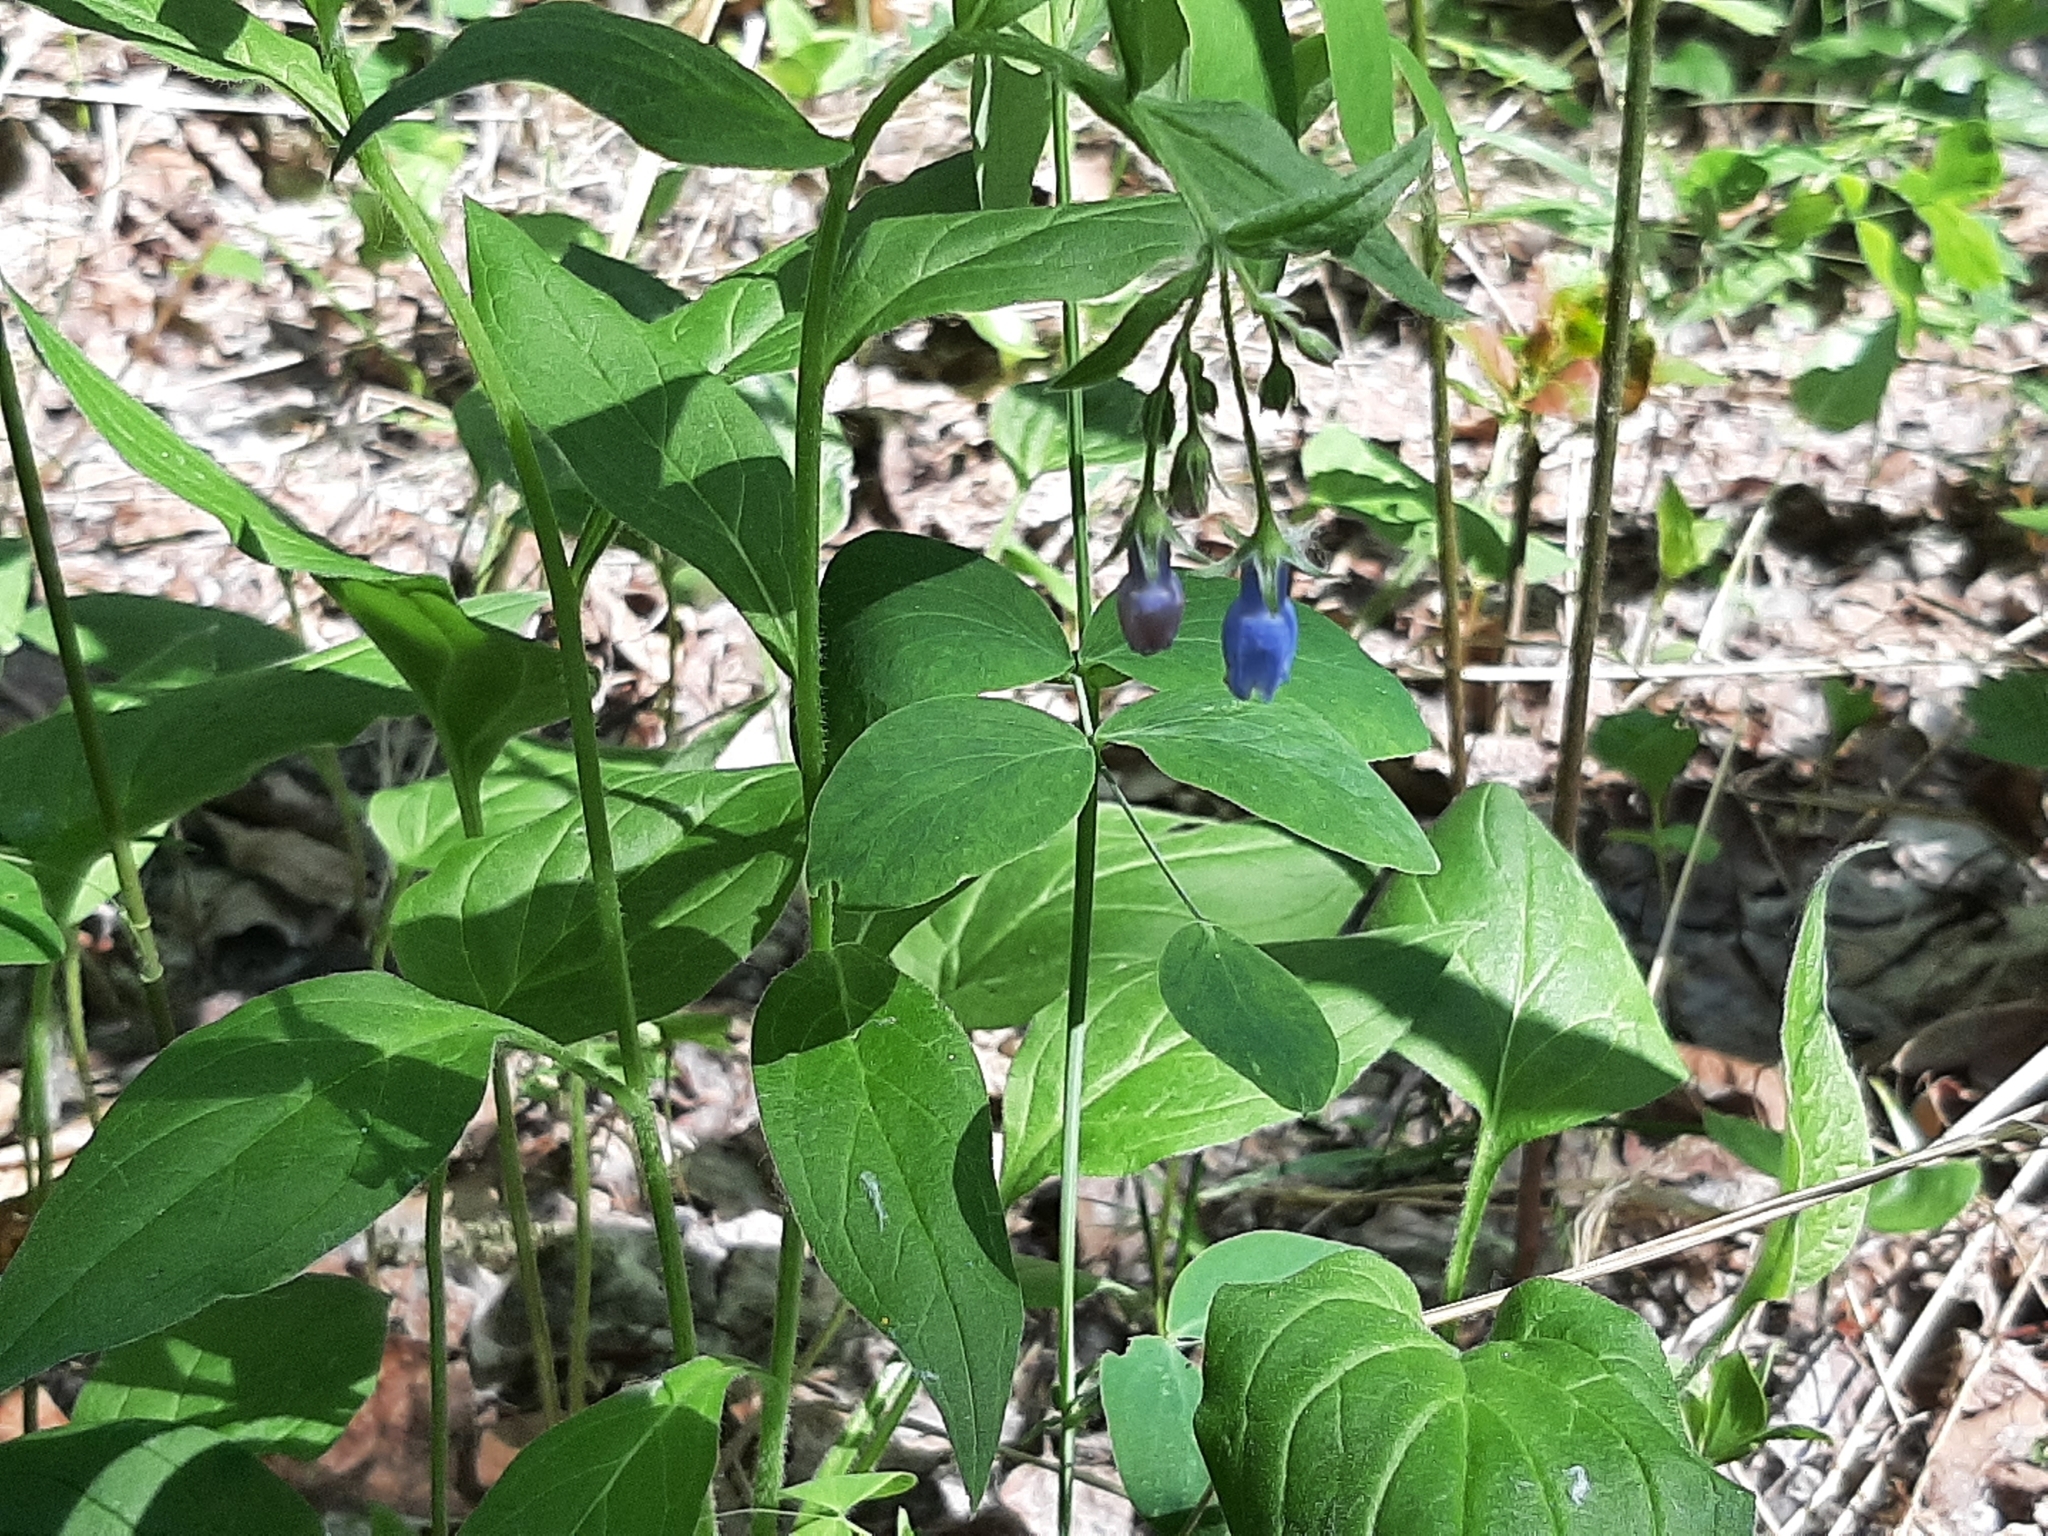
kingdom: Plantae
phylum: Tracheophyta
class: Magnoliopsida
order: Boraginales
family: Boraginaceae
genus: Mertensia
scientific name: Mertensia paniculata
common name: Panicled bluebells
